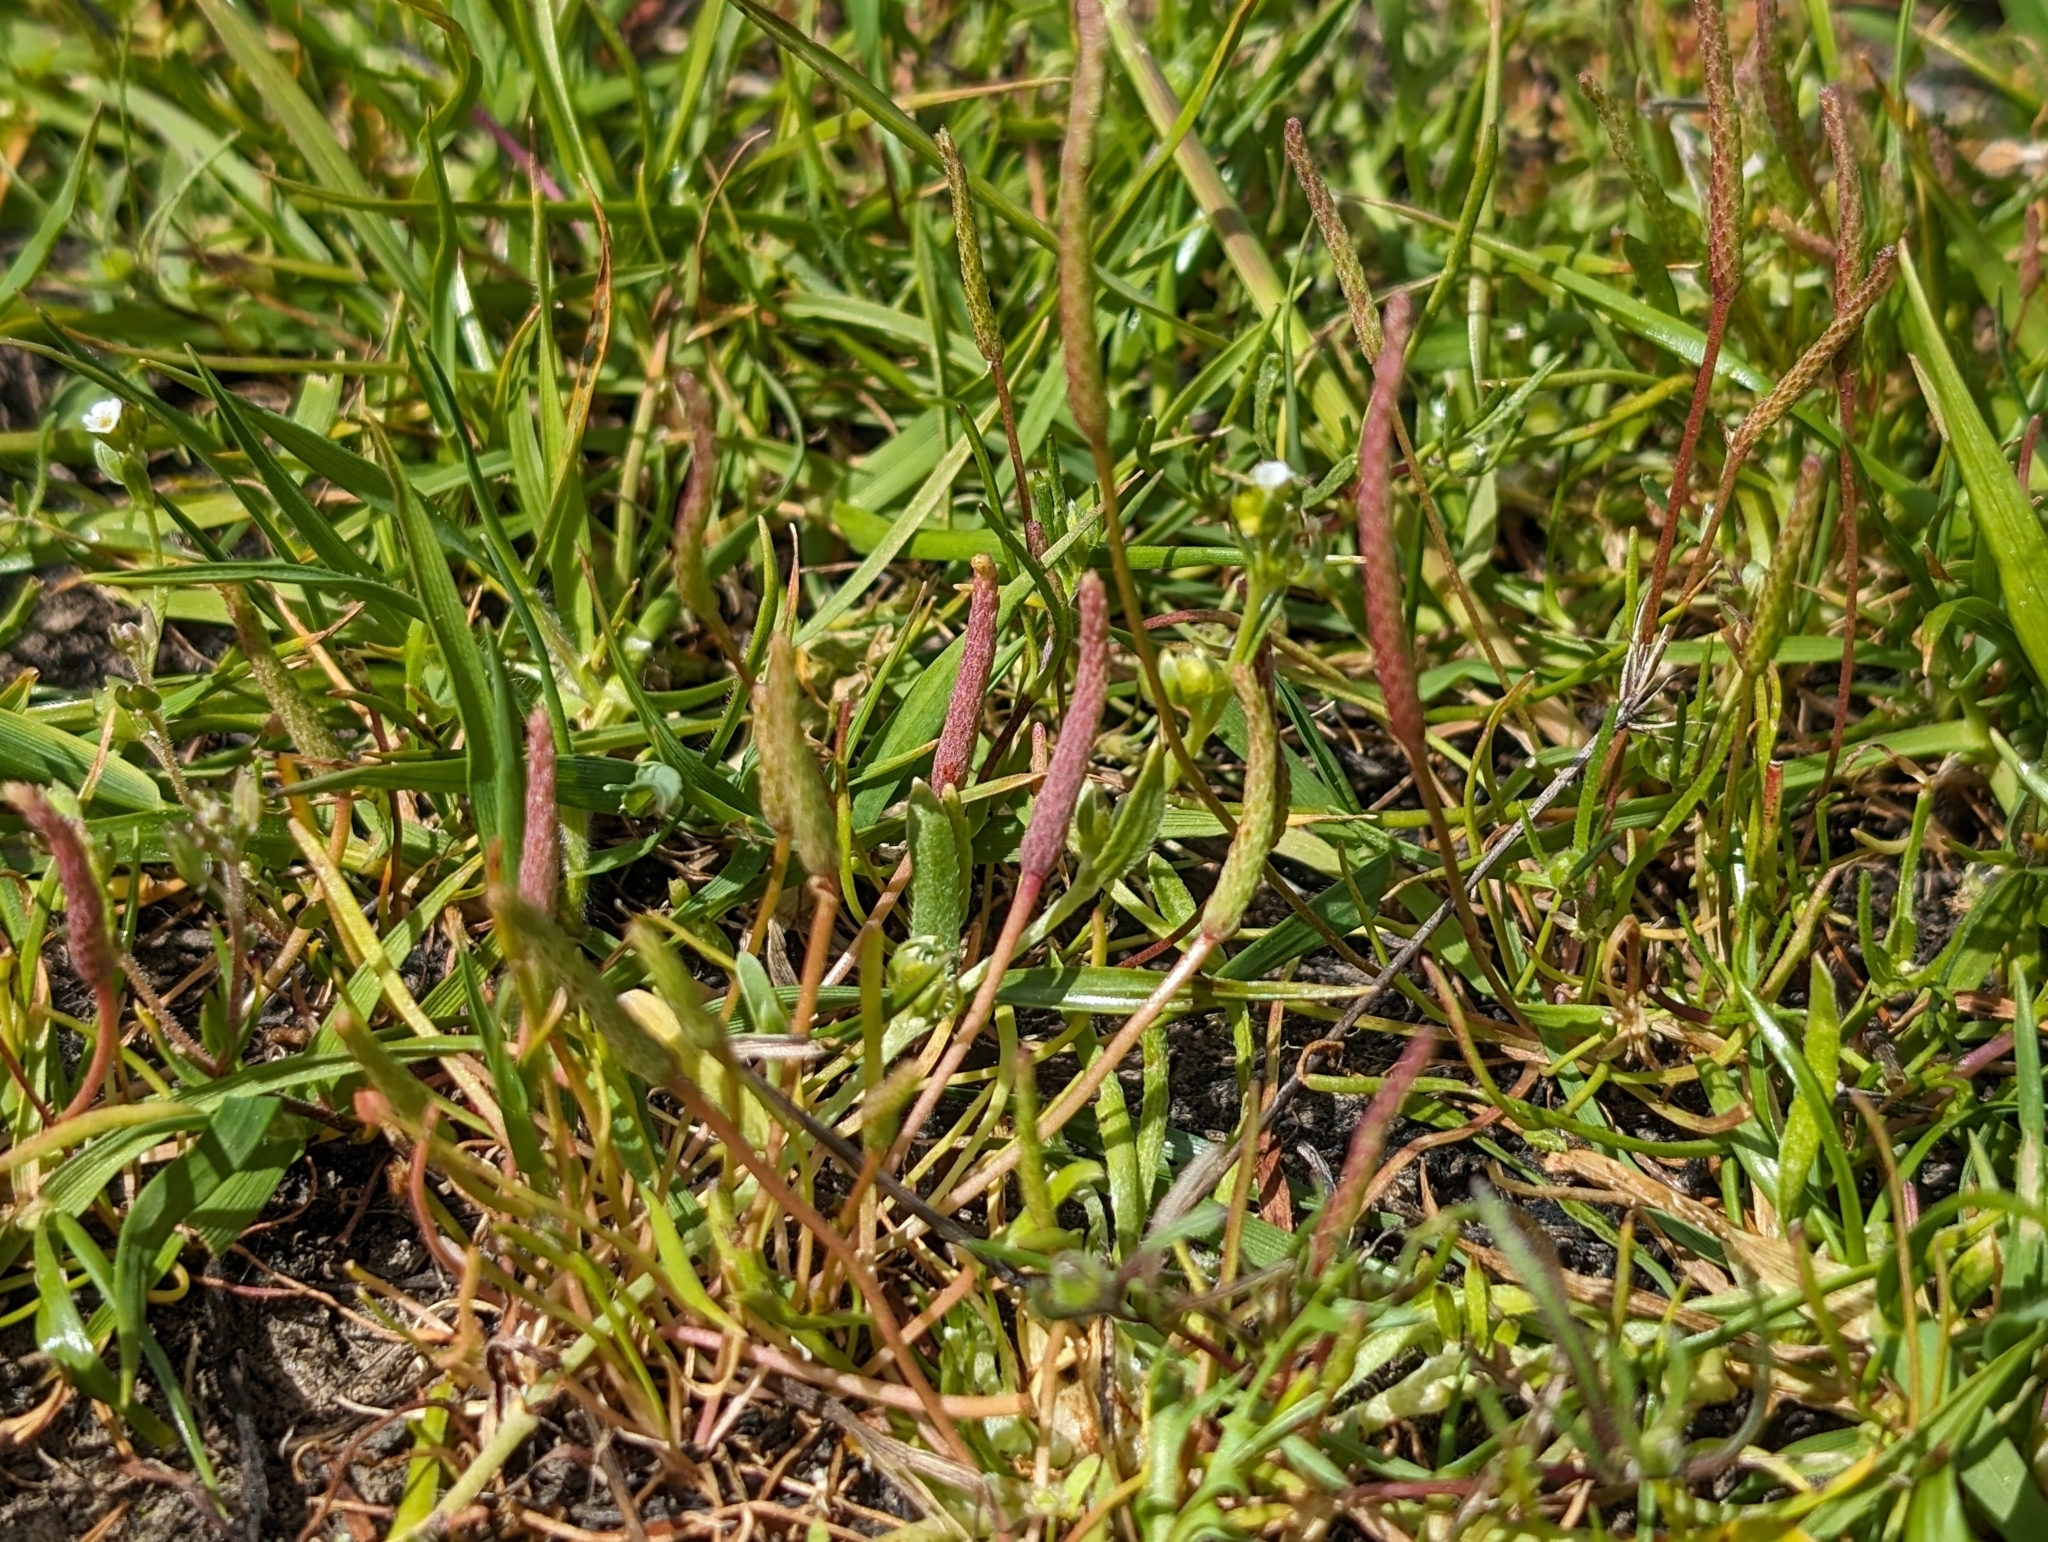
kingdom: Plantae
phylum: Tracheophyta
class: Magnoliopsida
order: Ranunculales
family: Ranunculaceae
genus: Myosurus
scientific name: Myosurus minimus
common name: Mousetail
